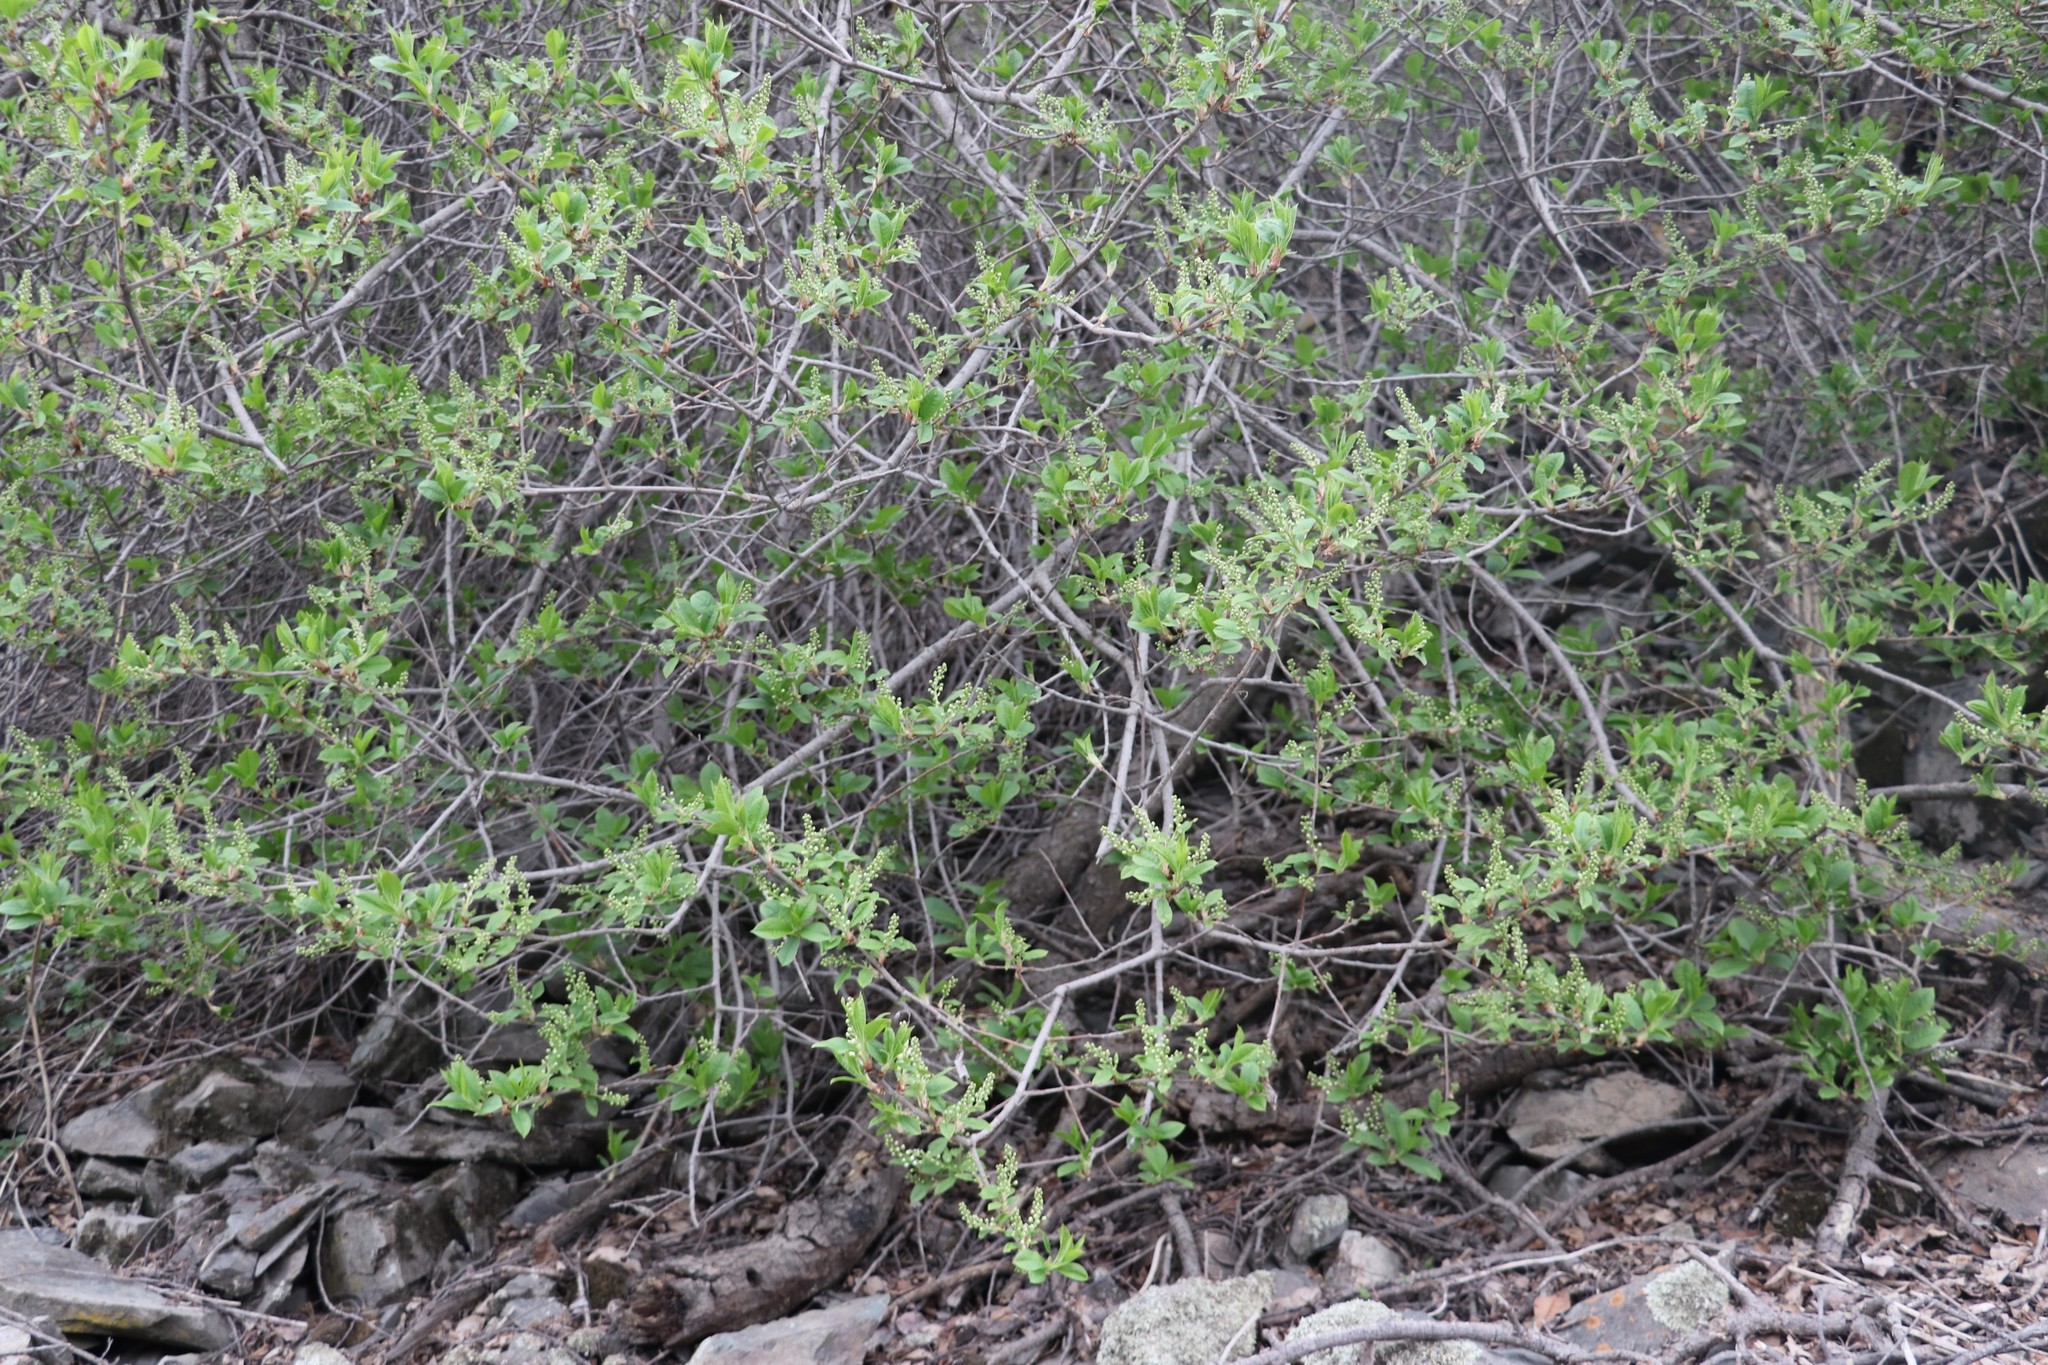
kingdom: Plantae
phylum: Tracheophyta
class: Magnoliopsida
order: Rosales
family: Rosaceae
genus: Prunus
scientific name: Prunus padus
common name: Bird cherry
